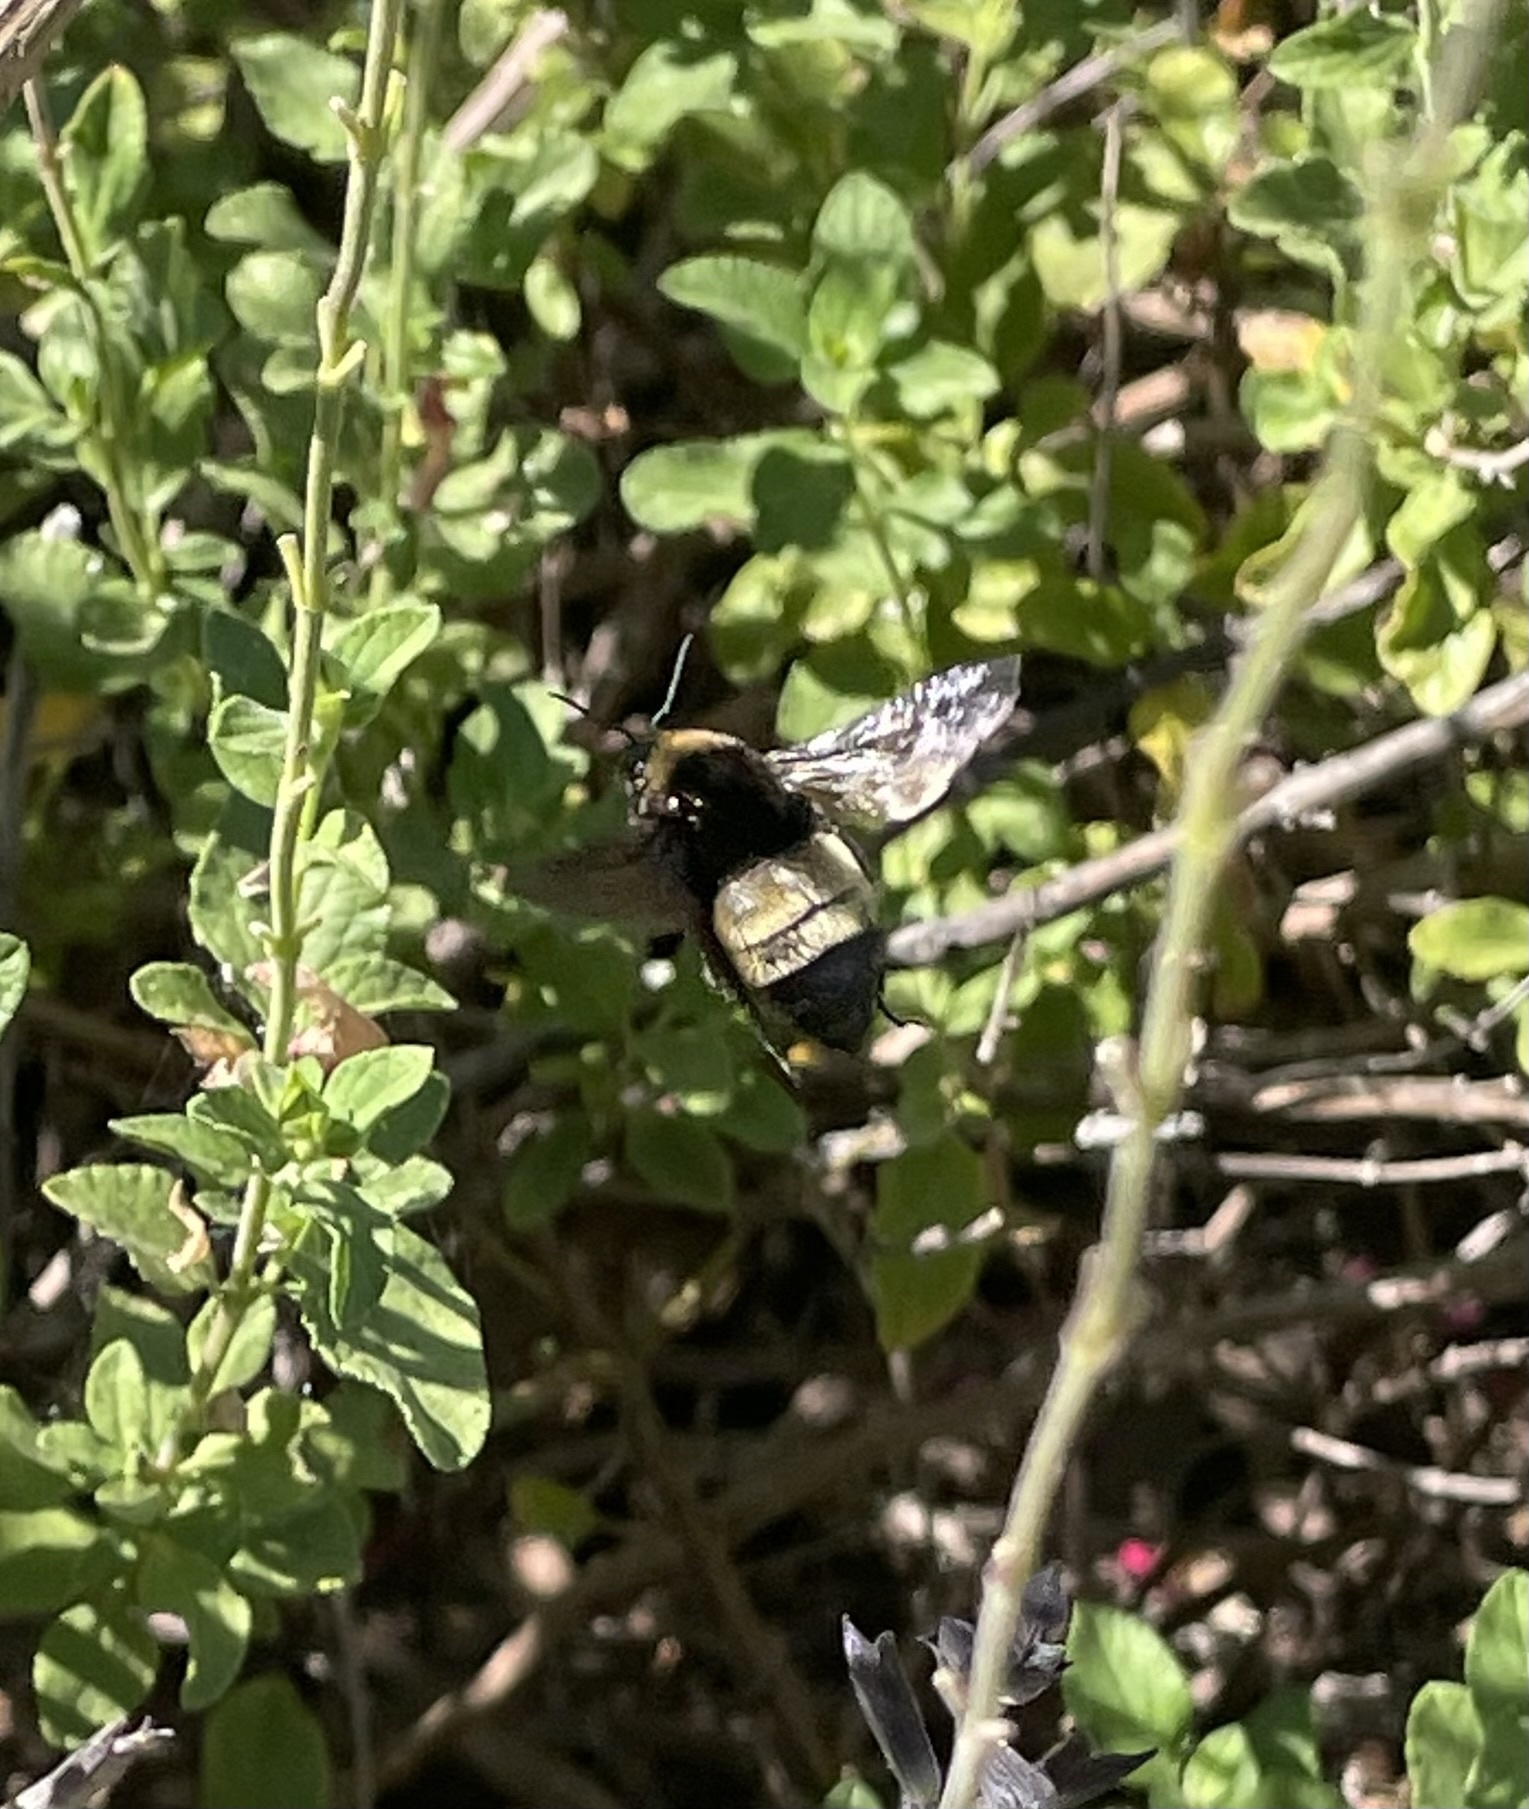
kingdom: Animalia
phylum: Arthropoda
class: Insecta
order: Hymenoptera
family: Apidae
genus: Bombus
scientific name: Bombus pensylvanicus
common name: Bumble bee
